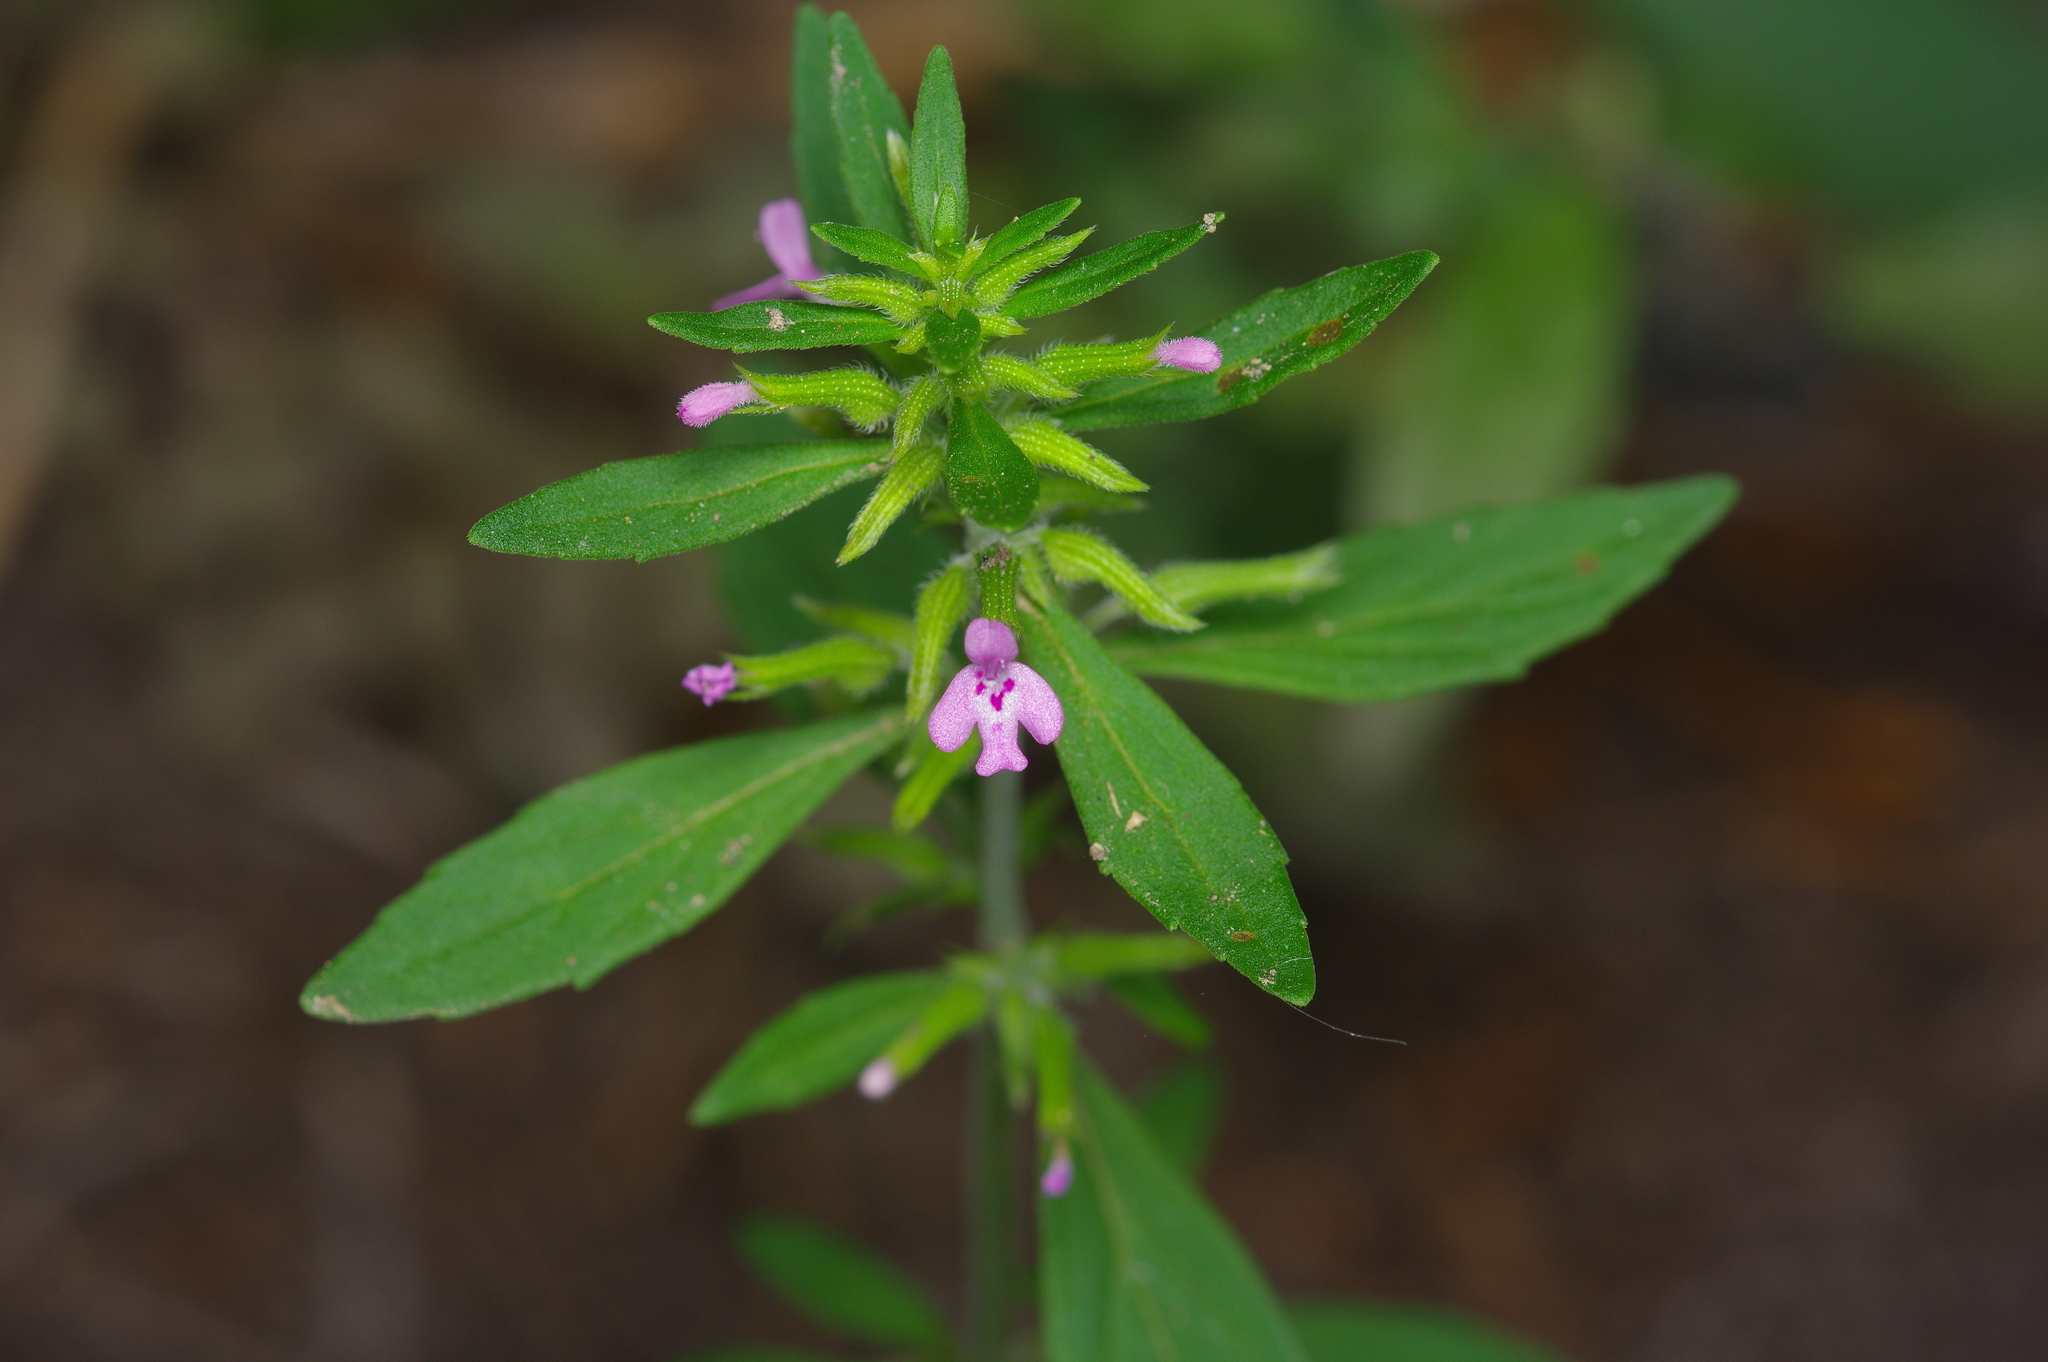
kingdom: Plantae
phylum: Tracheophyta
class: Magnoliopsida
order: Lamiales
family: Lamiaceae
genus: Hedeoma
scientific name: Hedeoma acinoides
